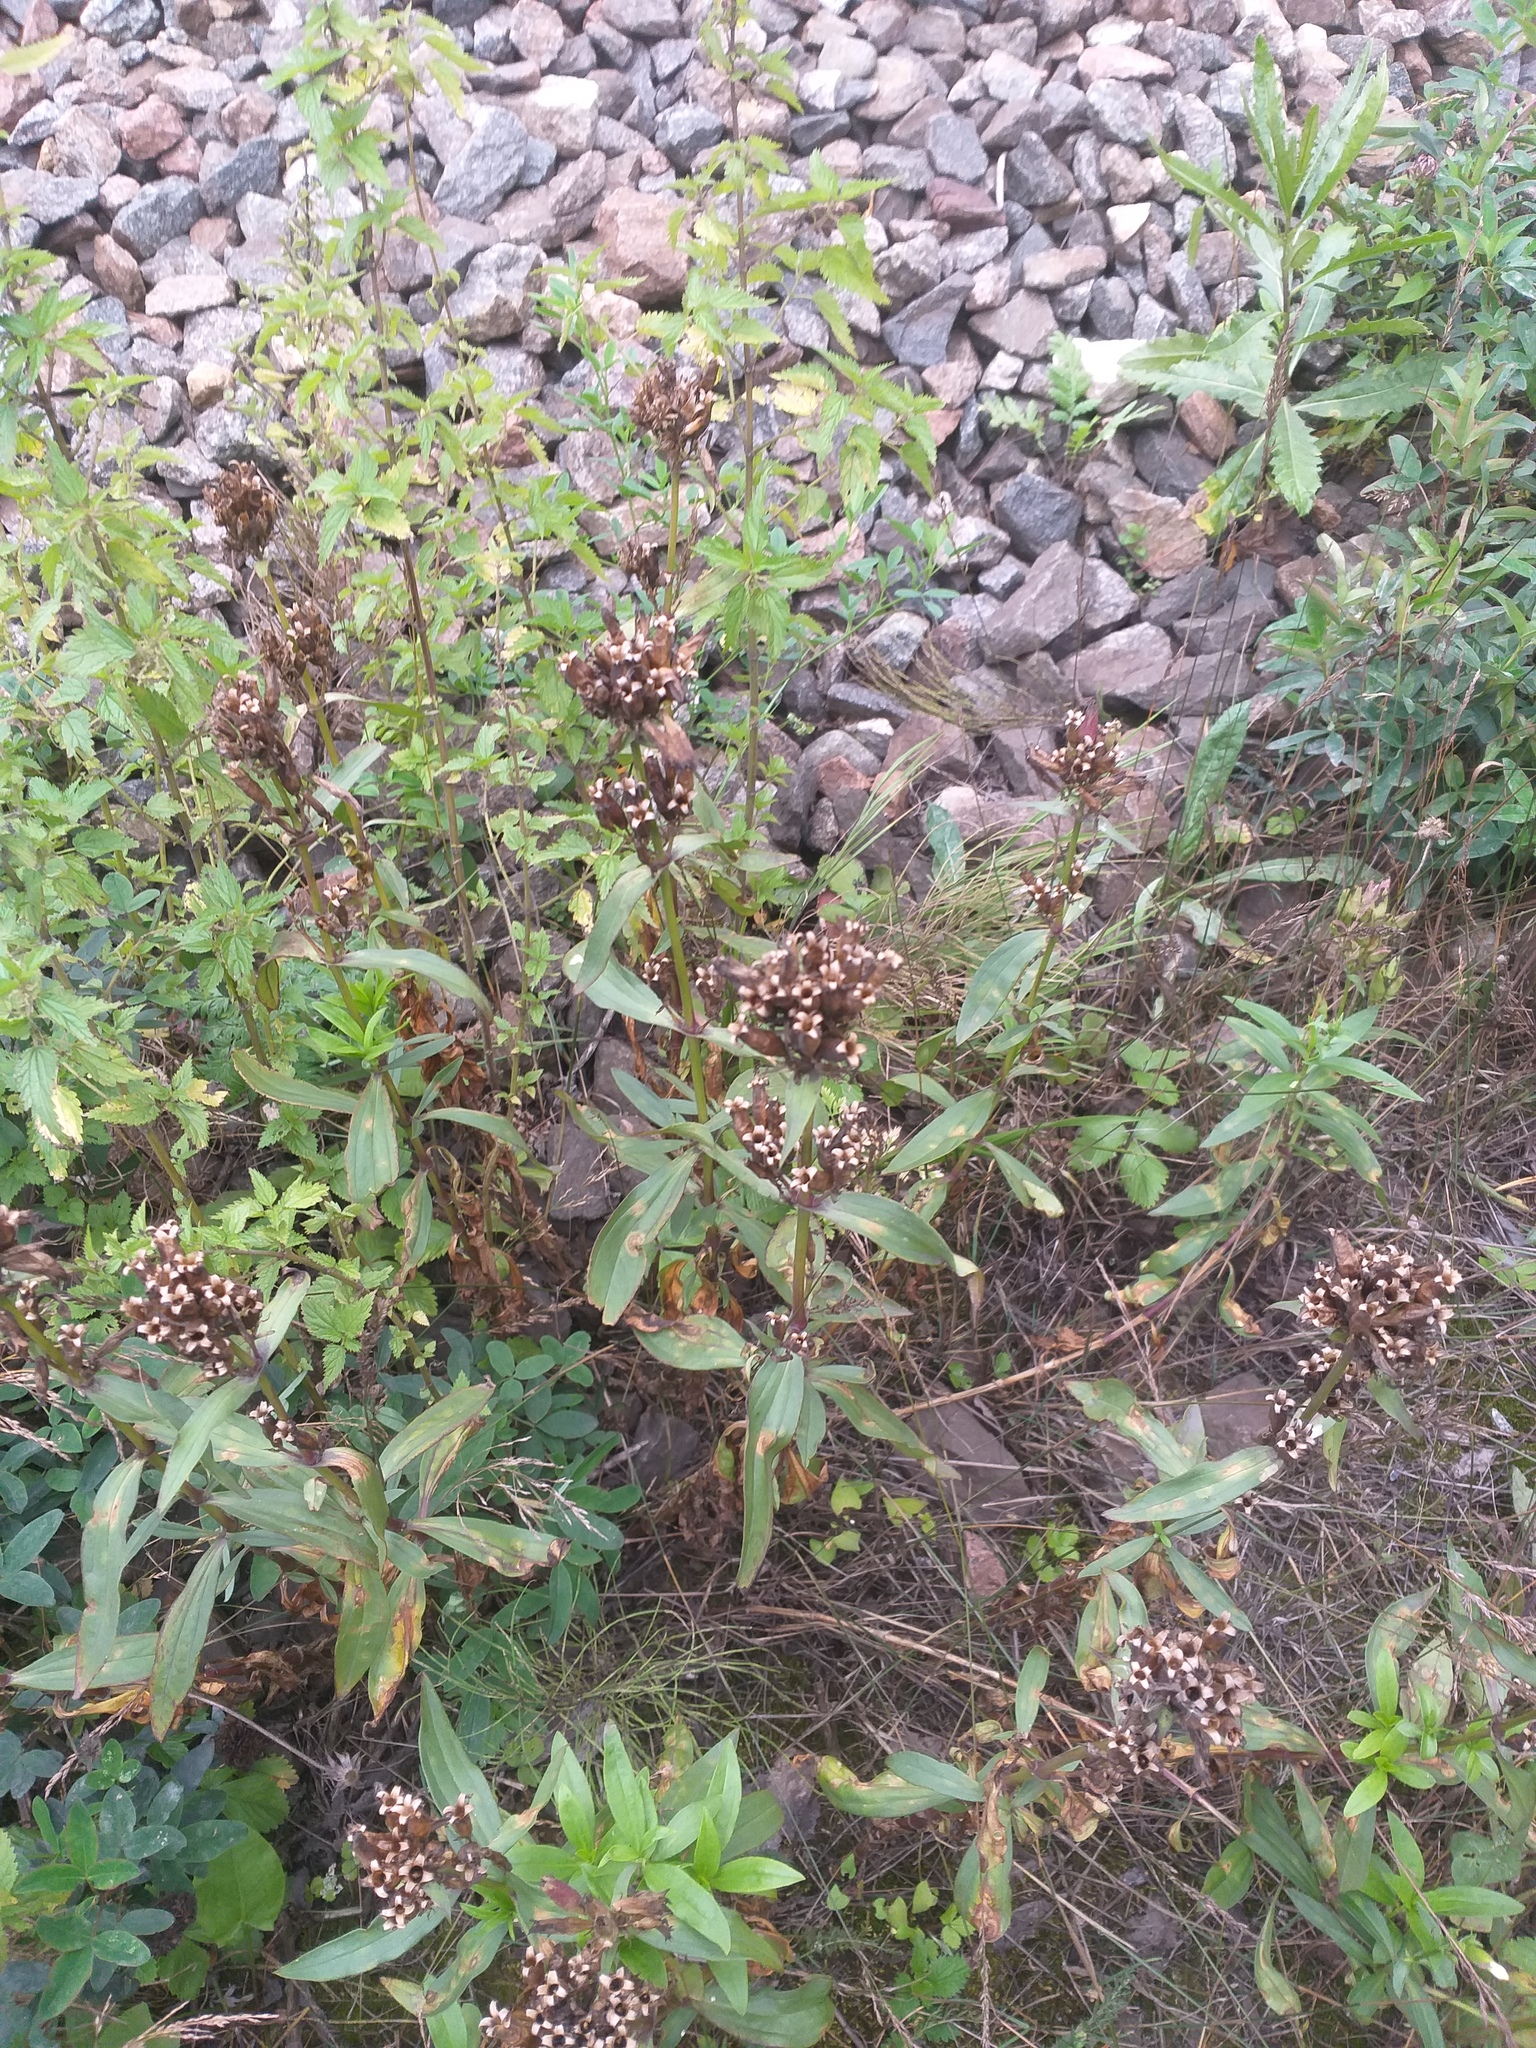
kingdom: Plantae
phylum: Tracheophyta
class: Magnoliopsida
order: Caryophyllales
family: Caryophyllaceae
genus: Saponaria
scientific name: Saponaria officinalis
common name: Soapwort
